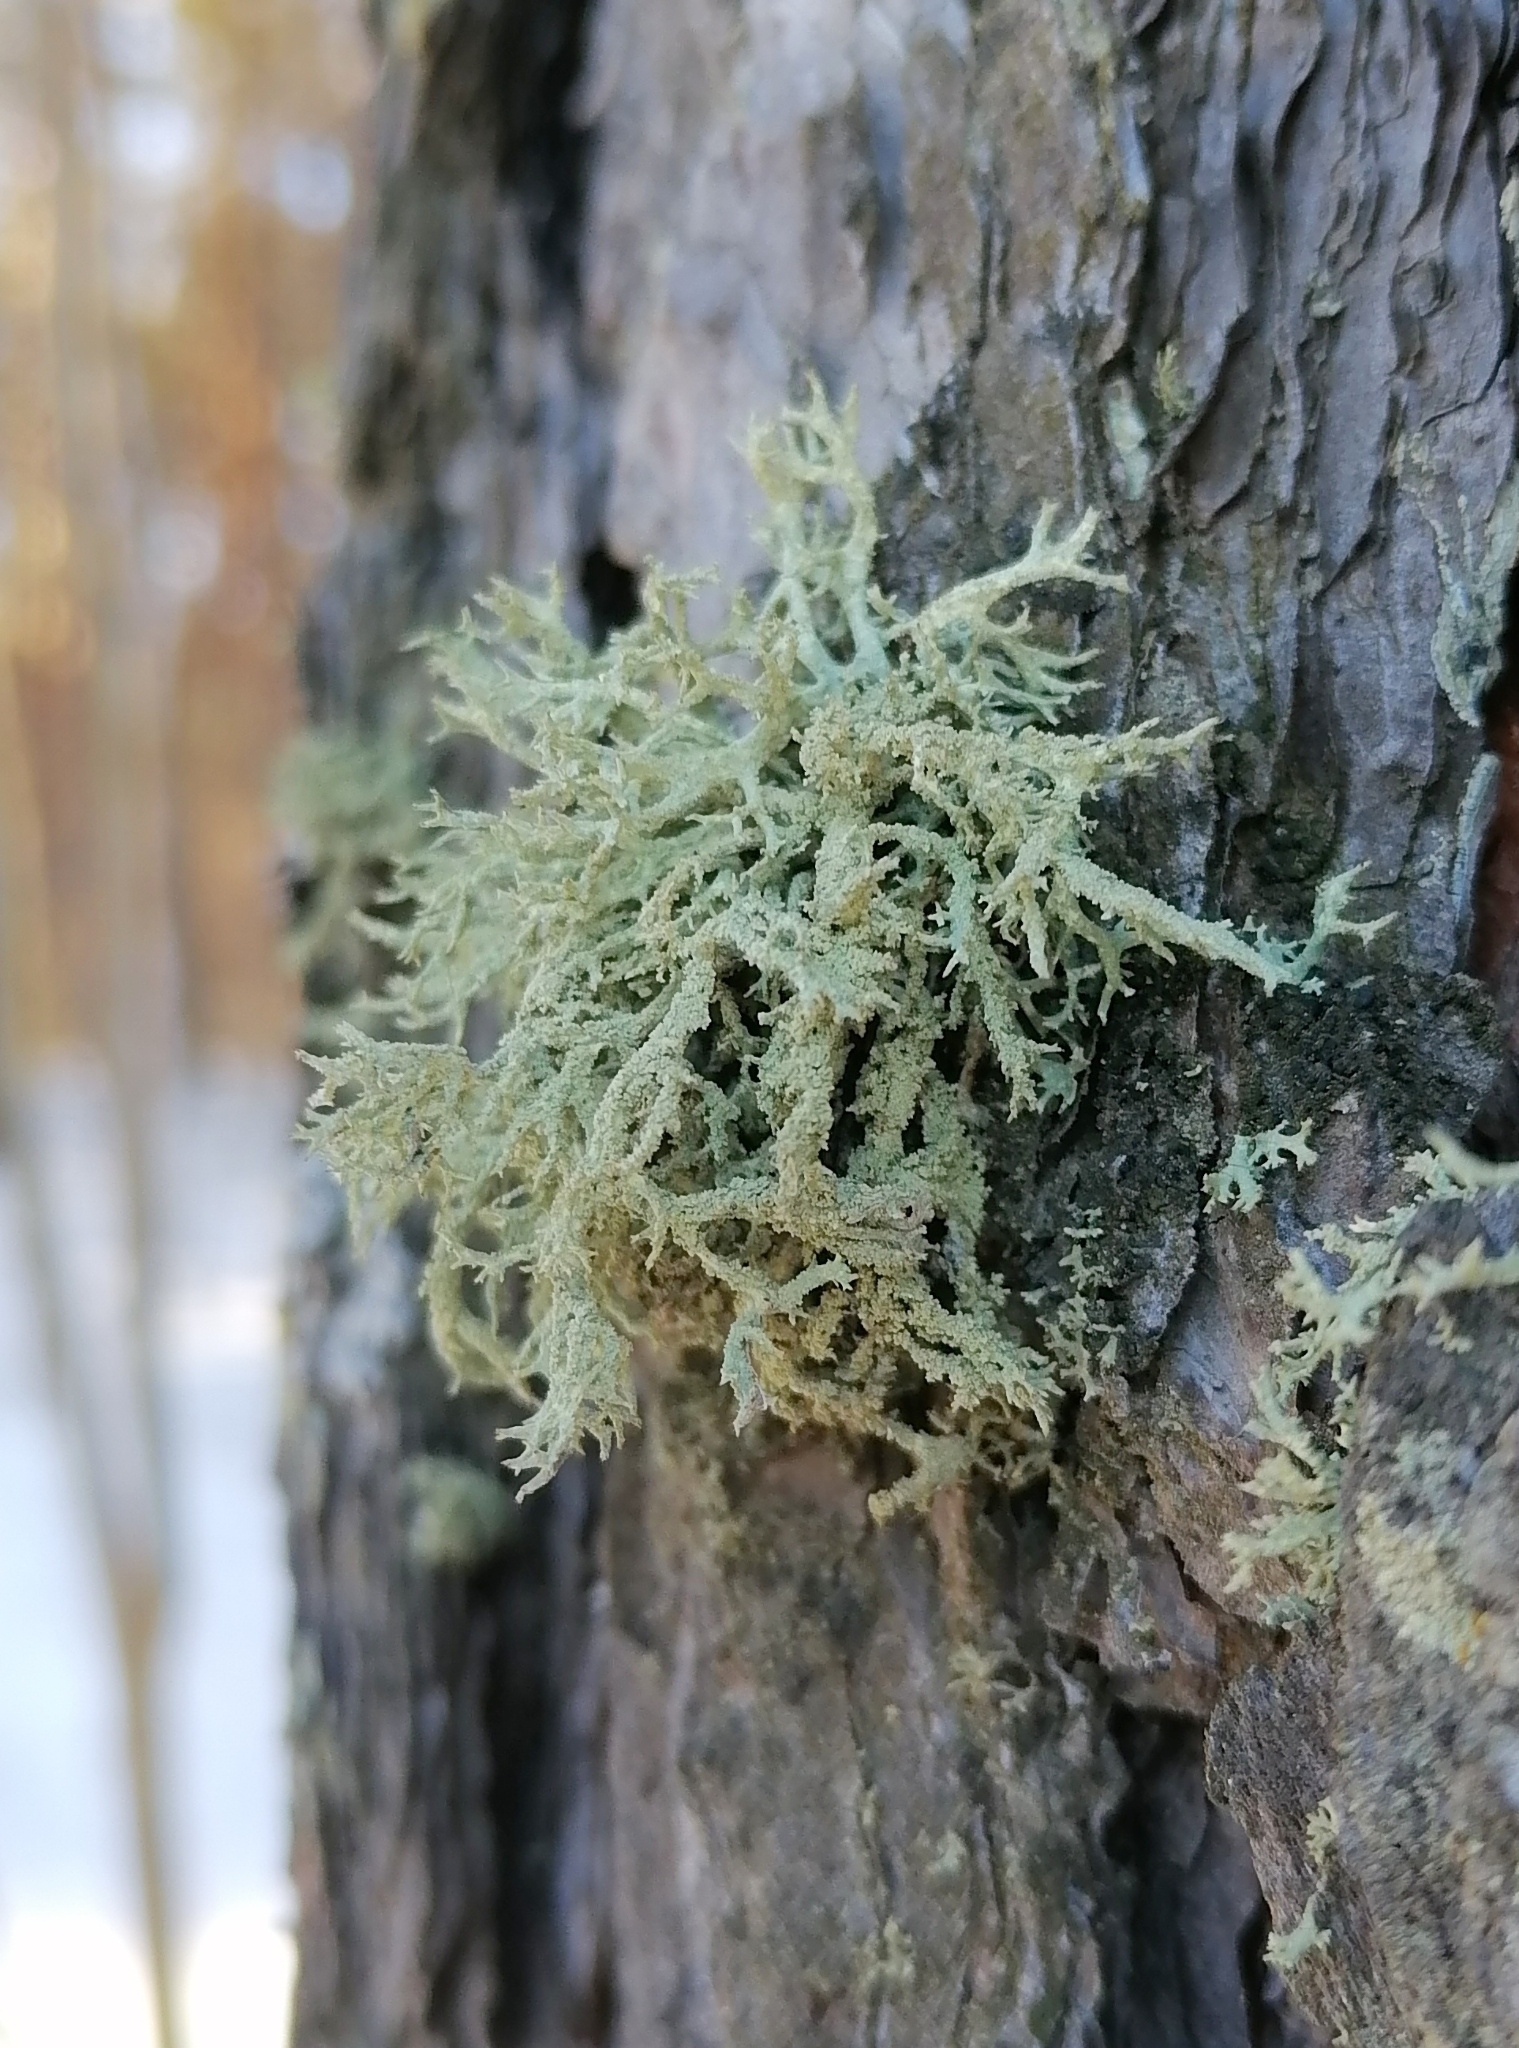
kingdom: Fungi
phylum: Ascomycota
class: Lecanoromycetes
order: Lecanorales
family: Parmeliaceae
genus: Evernia
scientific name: Evernia mesomorpha
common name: Boreal oak moss lichen
